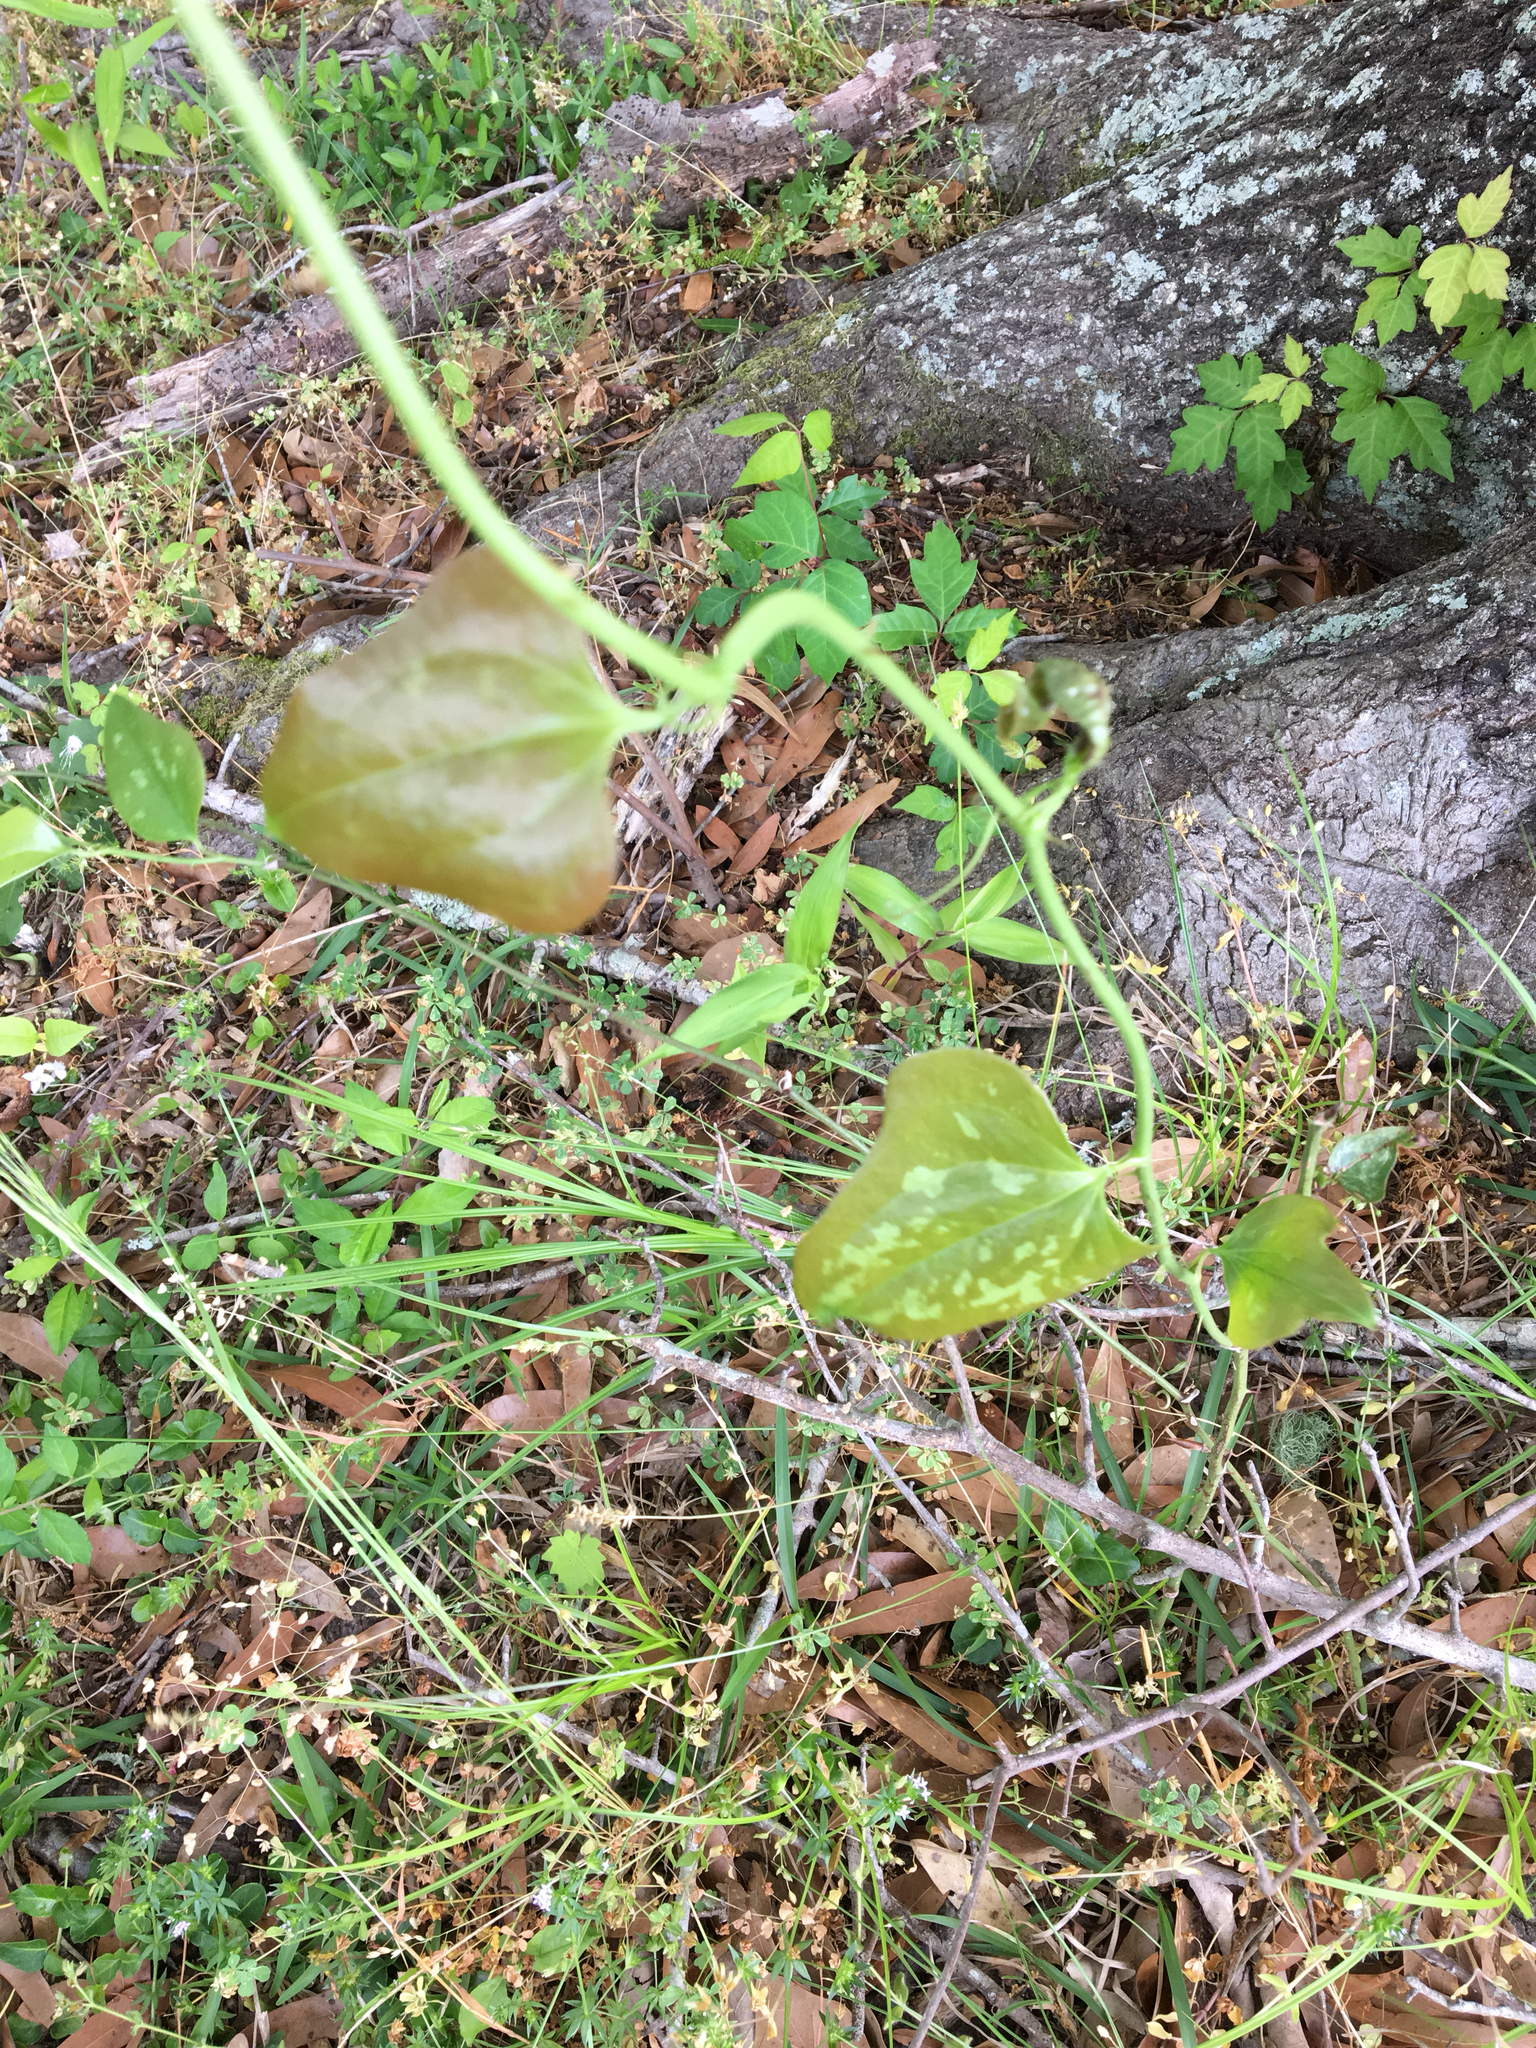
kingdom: Plantae
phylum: Tracheophyta
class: Liliopsida
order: Liliales
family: Smilacaceae
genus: Smilax
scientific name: Smilax bona-nox
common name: Catbrier
